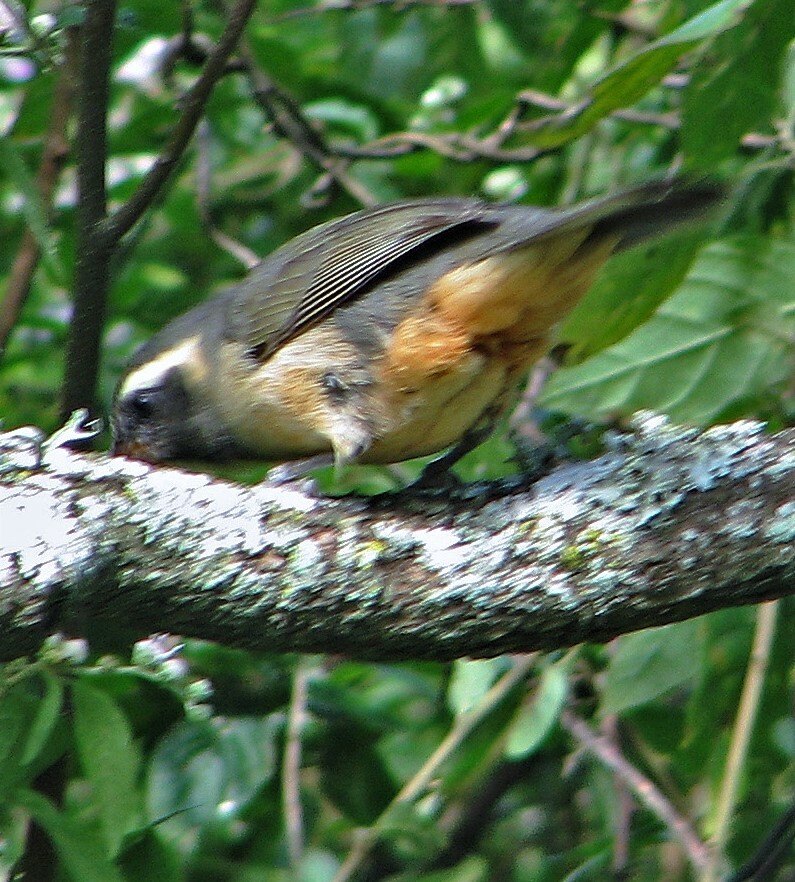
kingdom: Animalia
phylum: Chordata
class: Aves
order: Passeriformes
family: Thraupidae
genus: Saltator
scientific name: Saltator aurantiirostris
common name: Golden-billed saltator
